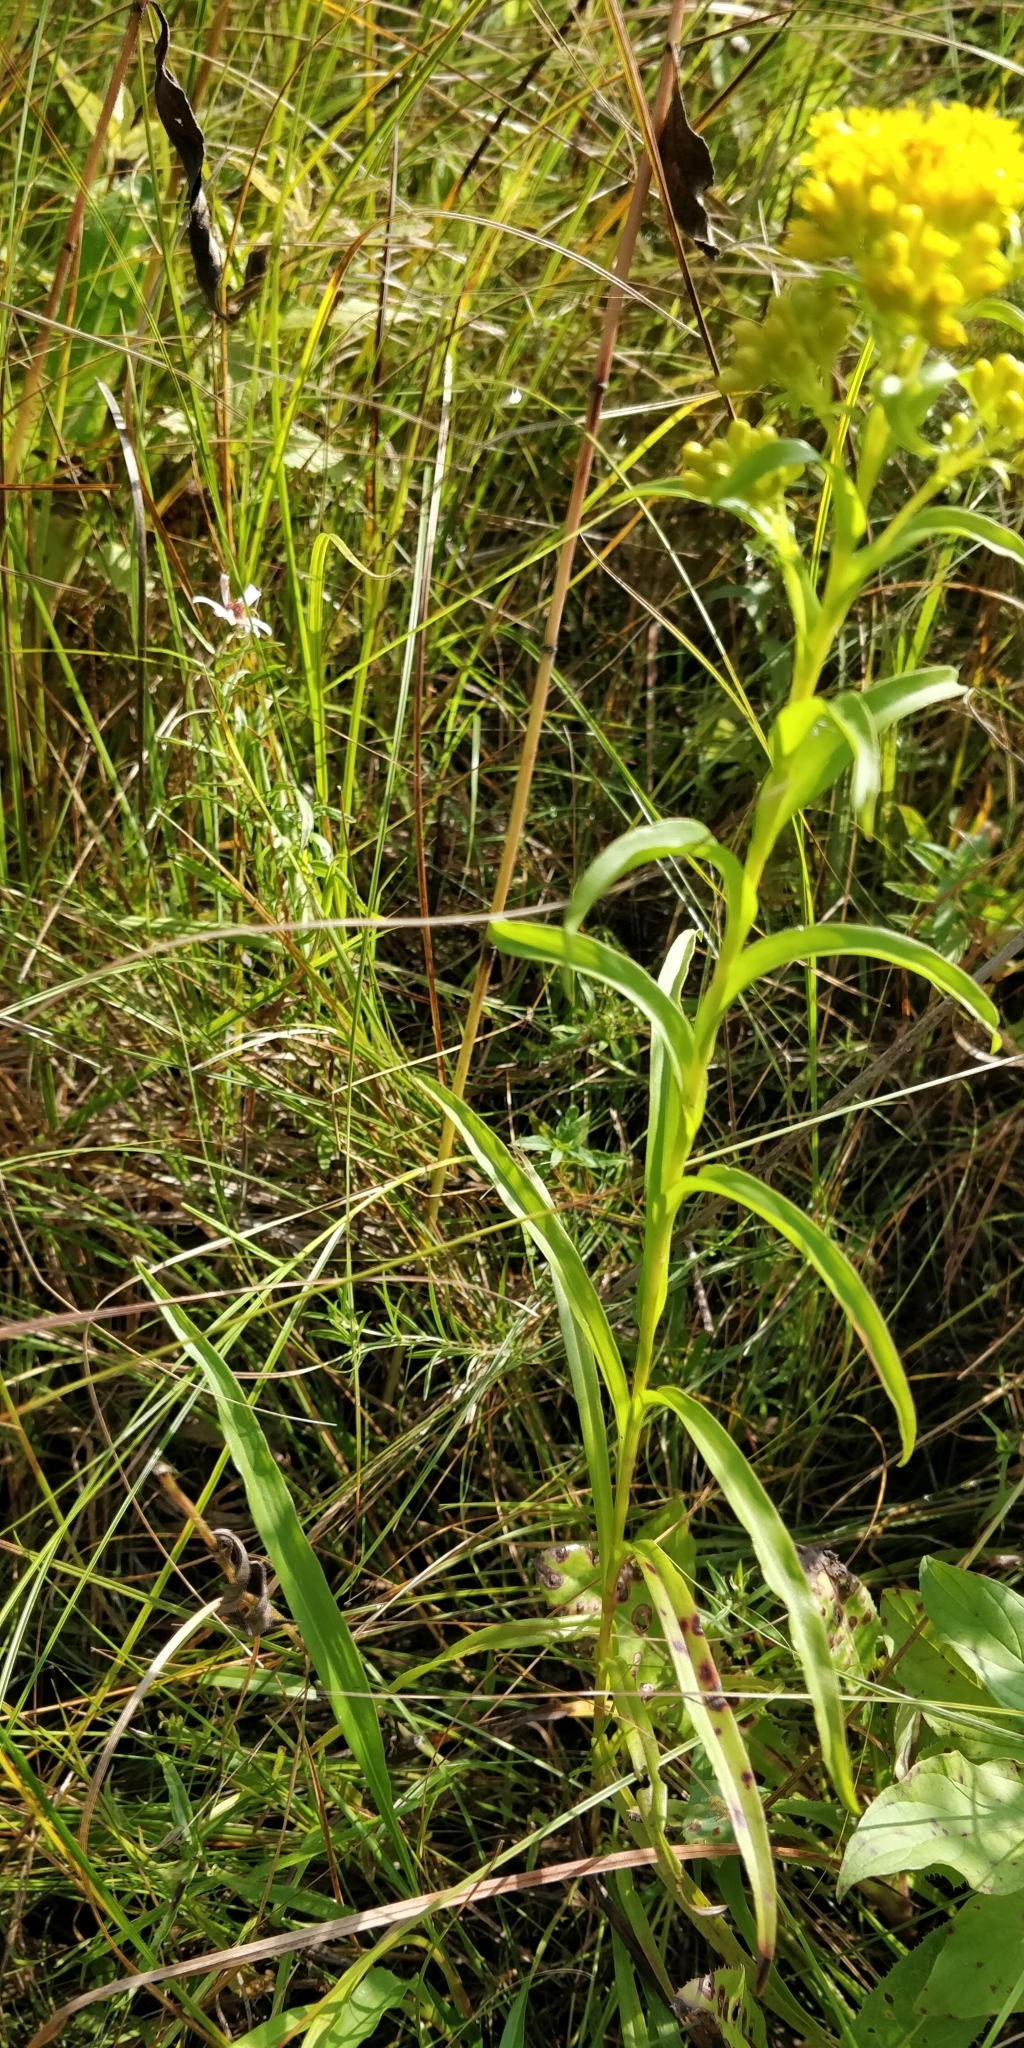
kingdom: Plantae
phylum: Tracheophyta
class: Magnoliopsida
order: Asterales
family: Asteraceae
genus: Solidago
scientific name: Solidago riddellii
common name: Riddell's goldenrod
